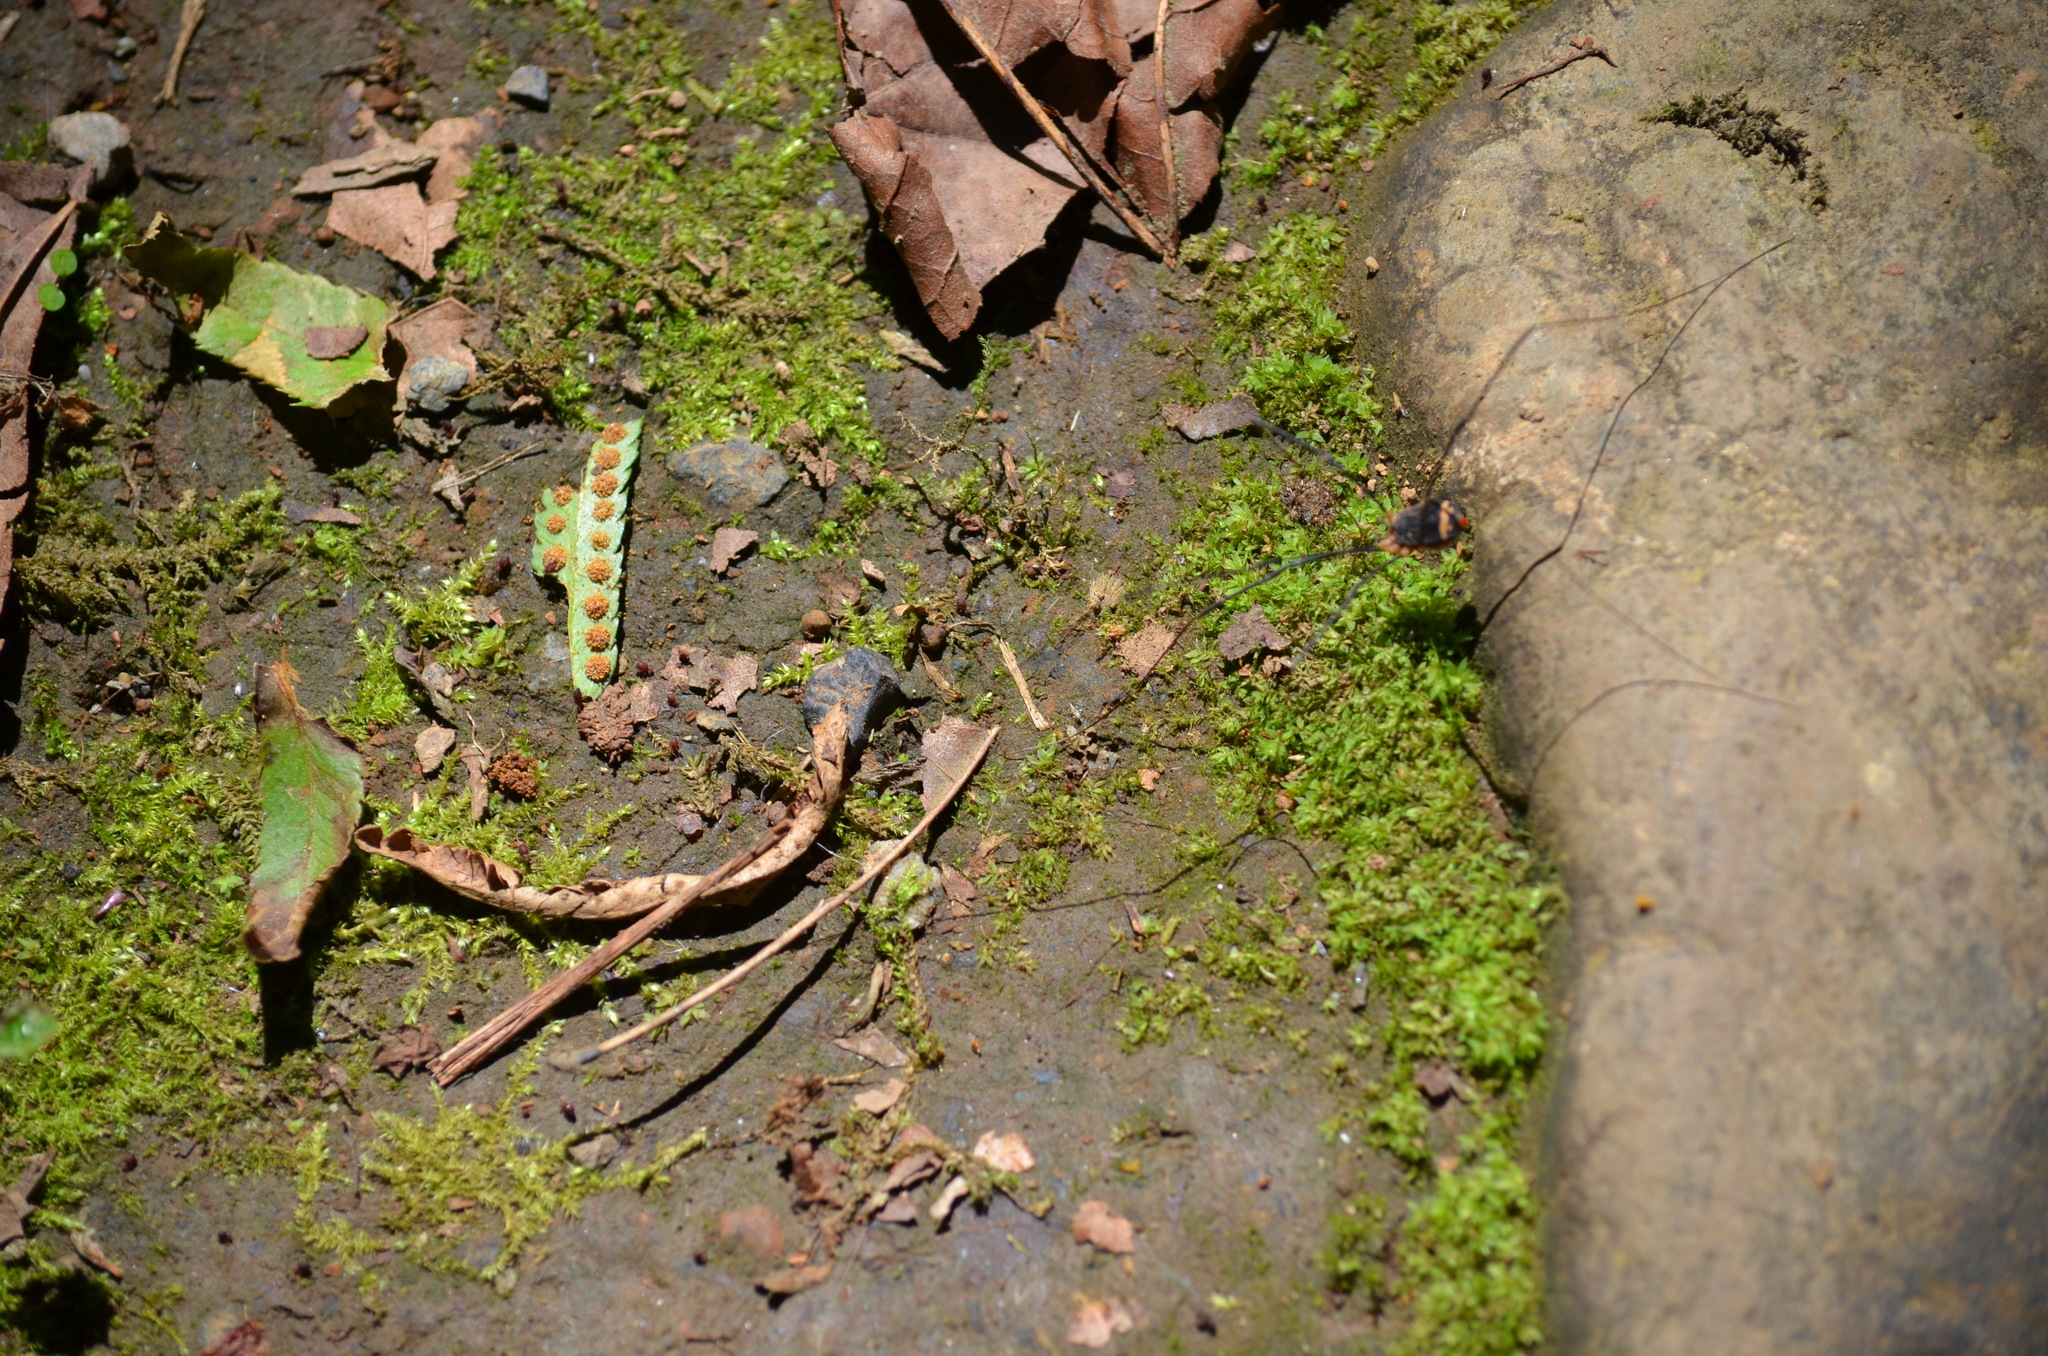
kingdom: Animalia
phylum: Arthropoda
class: Arachnida
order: Opiliones
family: Sclerosomatidae
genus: Nelima
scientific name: Nelima paessleri
